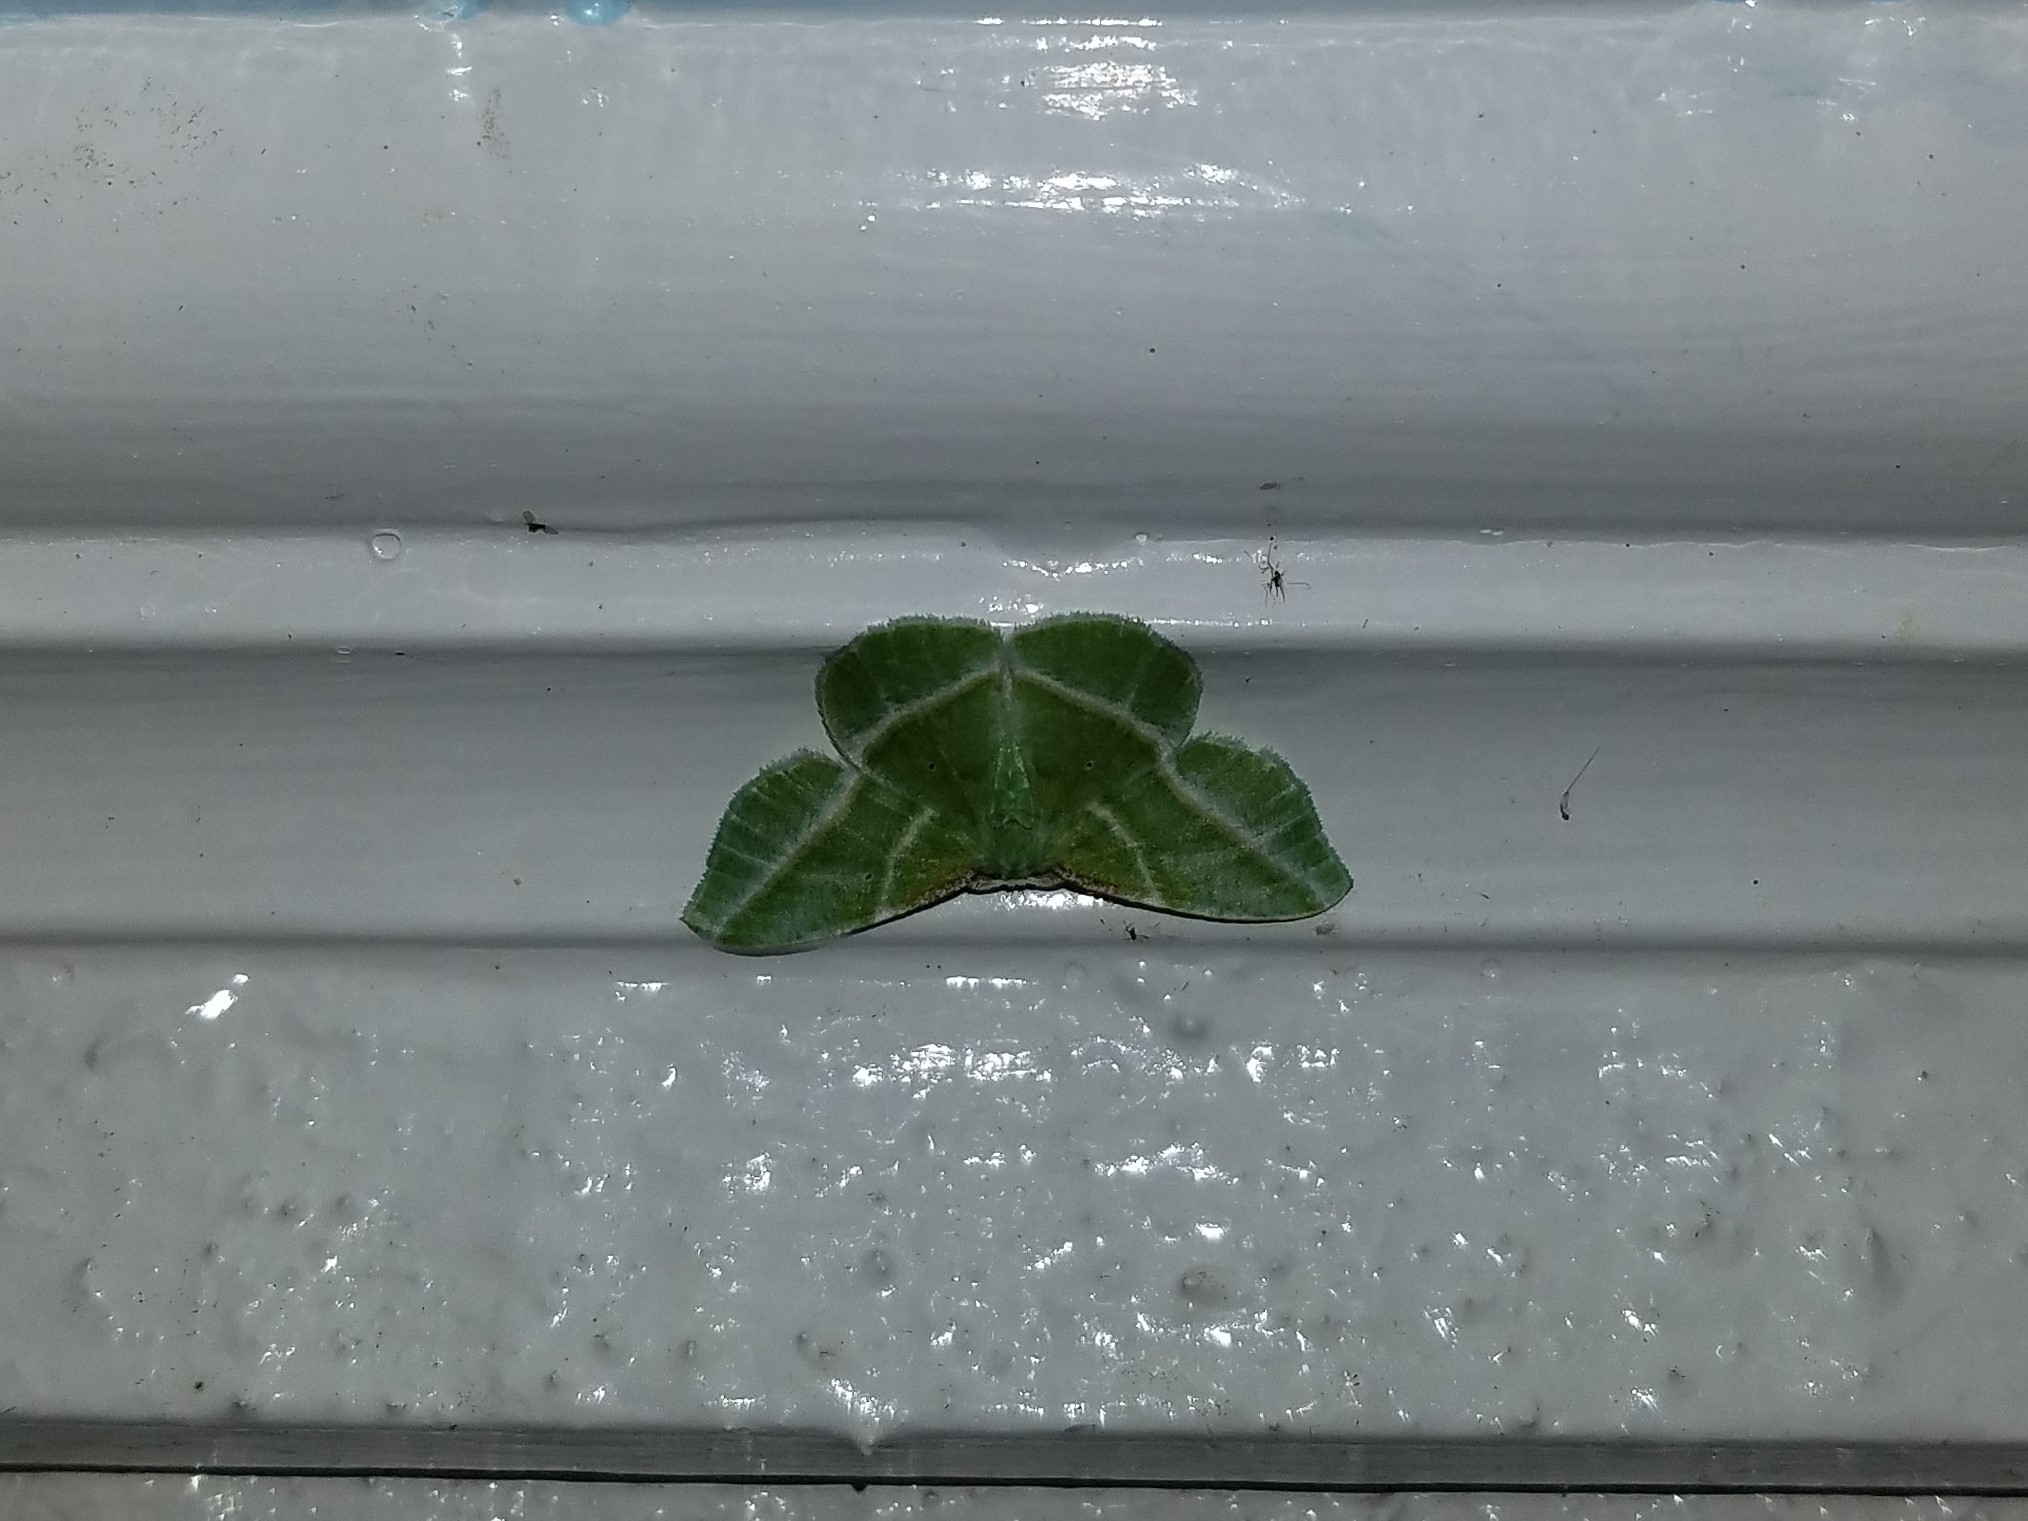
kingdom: Animalia
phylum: Arthropoda
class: Insecta
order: Lepidoptera
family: Geometridae
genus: Dichorda
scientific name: Dichorda iridaria
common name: Showy emerald
